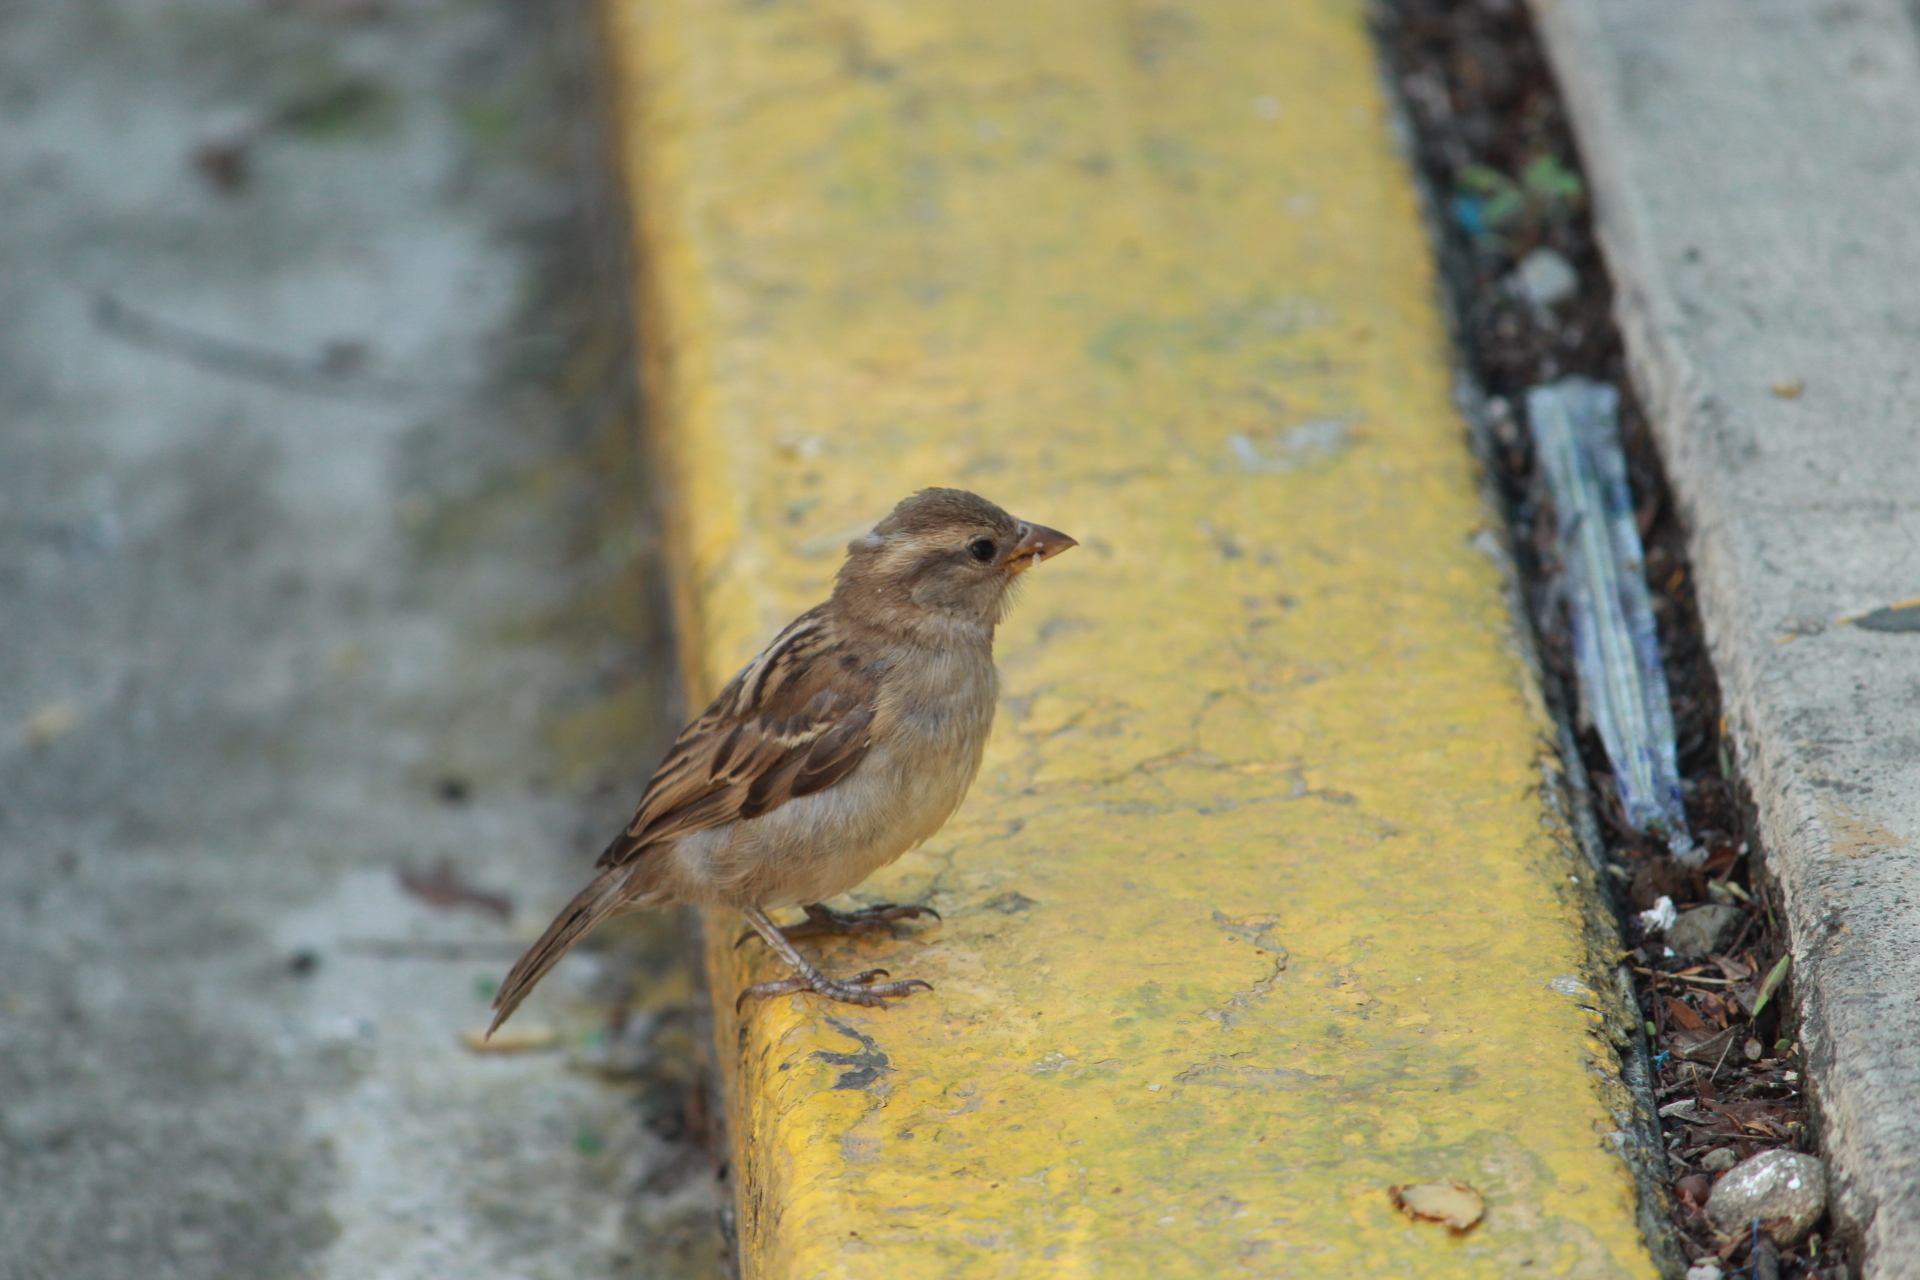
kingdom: Animalia
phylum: Chordata
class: Aves
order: Passeriformes
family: Passeridae
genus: Passer
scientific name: Passer domesticus
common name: House sparrow
